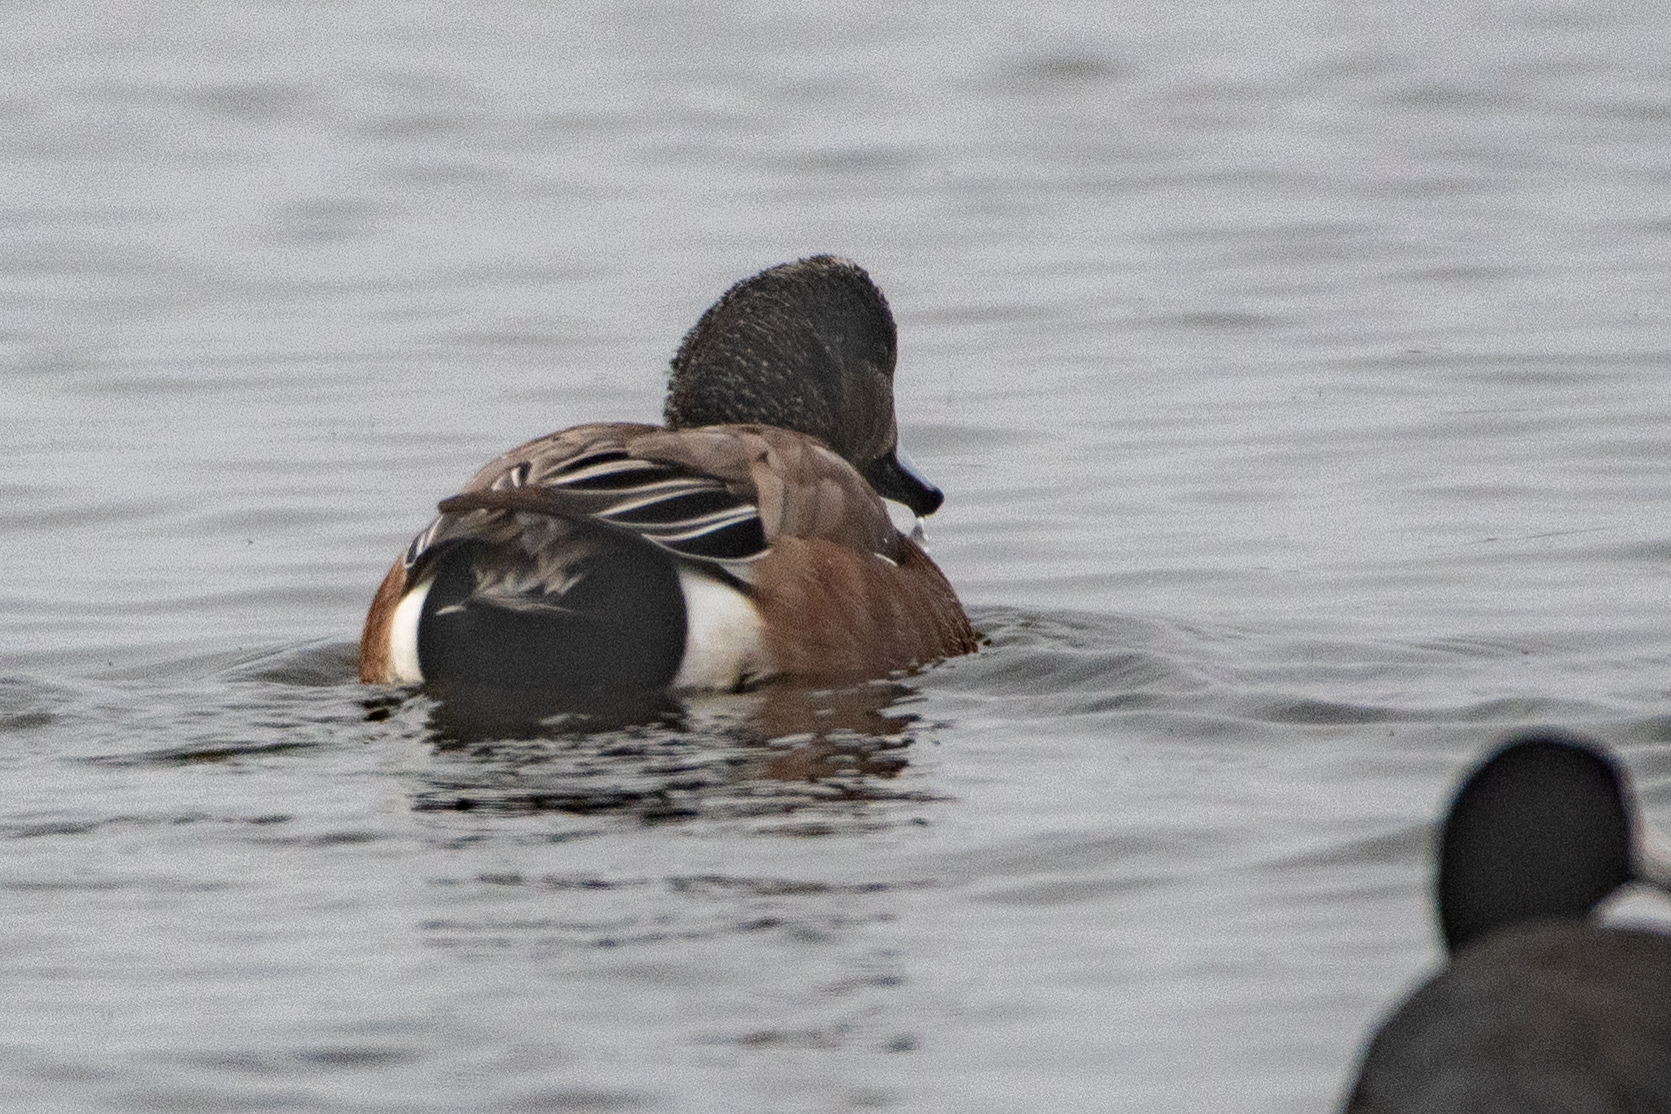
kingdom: Animalia
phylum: Chordata
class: Aves
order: Anseriformes
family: Anatidae
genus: Mareca
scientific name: Mareca americana
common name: American wigeon
